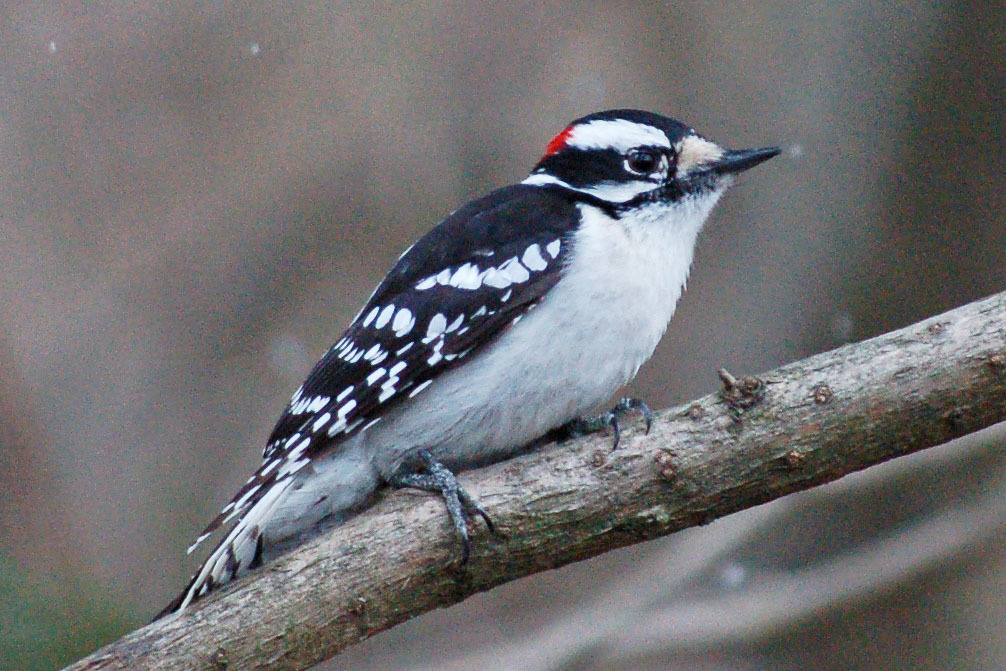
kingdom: Animalia
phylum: Chordata
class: Aves
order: Piciformes
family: Picidae
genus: Dryobates
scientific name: Dryobates pubescens
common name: Downy woodpecker
